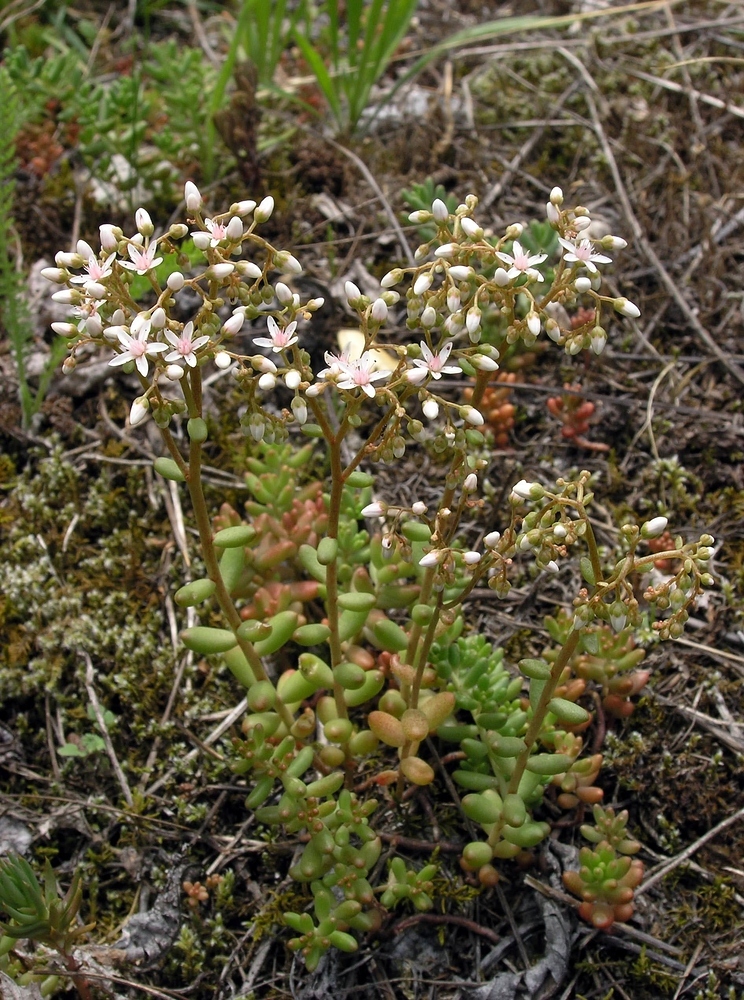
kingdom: Plantae
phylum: Tracheophyta
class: Magnoliopsida
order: Saxifragales
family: Crassulaceae
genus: Sedum
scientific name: Sedum album
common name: White stonecrop
